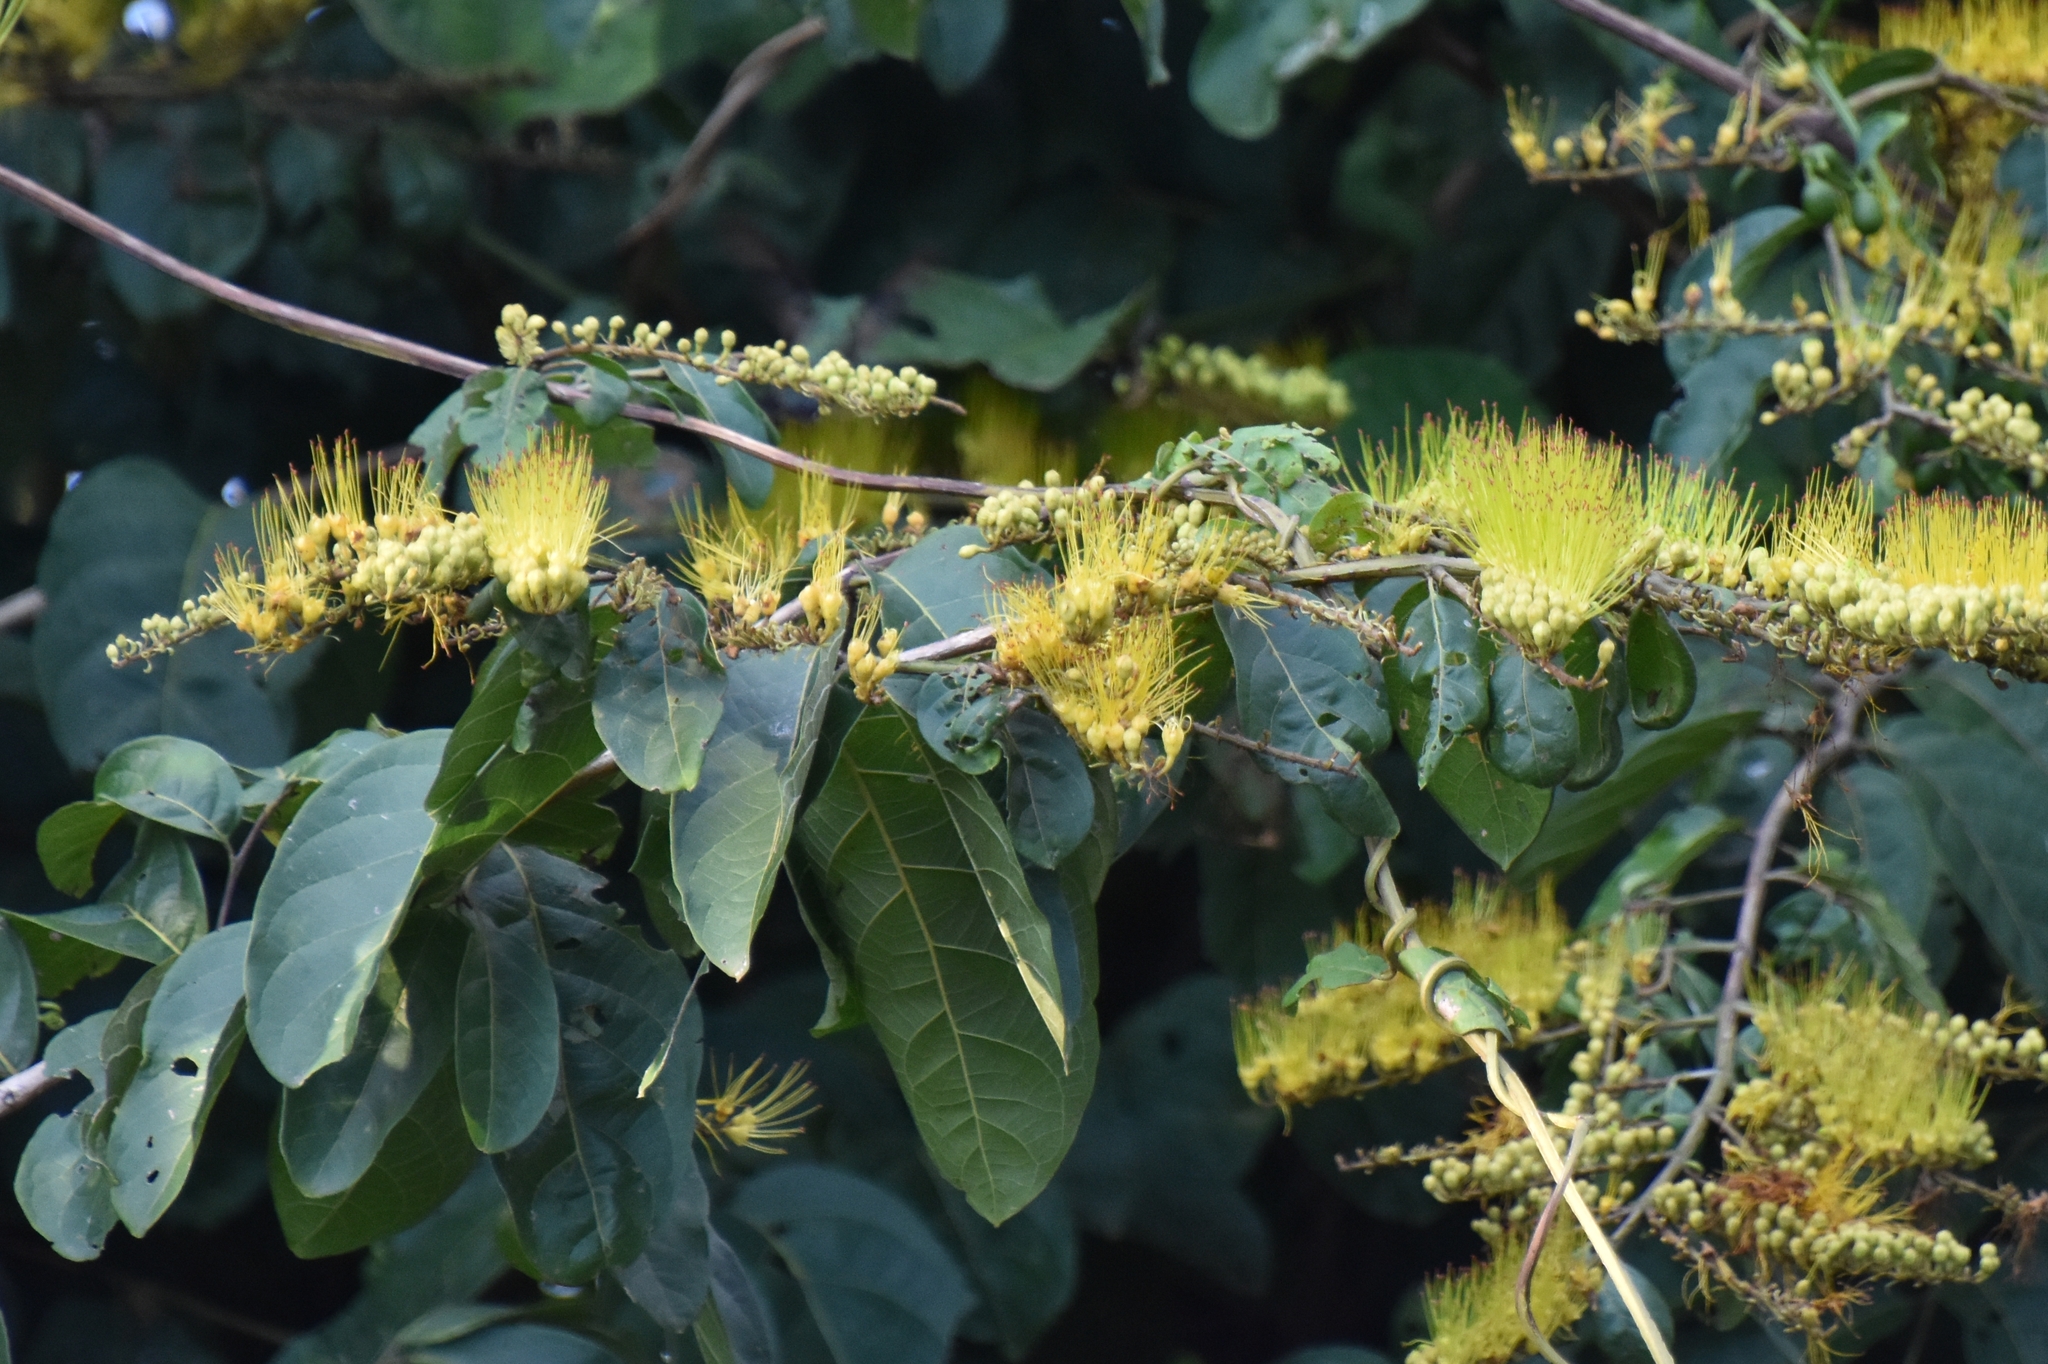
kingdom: Plantae
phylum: Tracheophyta
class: Magnoliopsida
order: Myrtales
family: Combretaceae
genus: Combretum
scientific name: Combretum fruticosum
